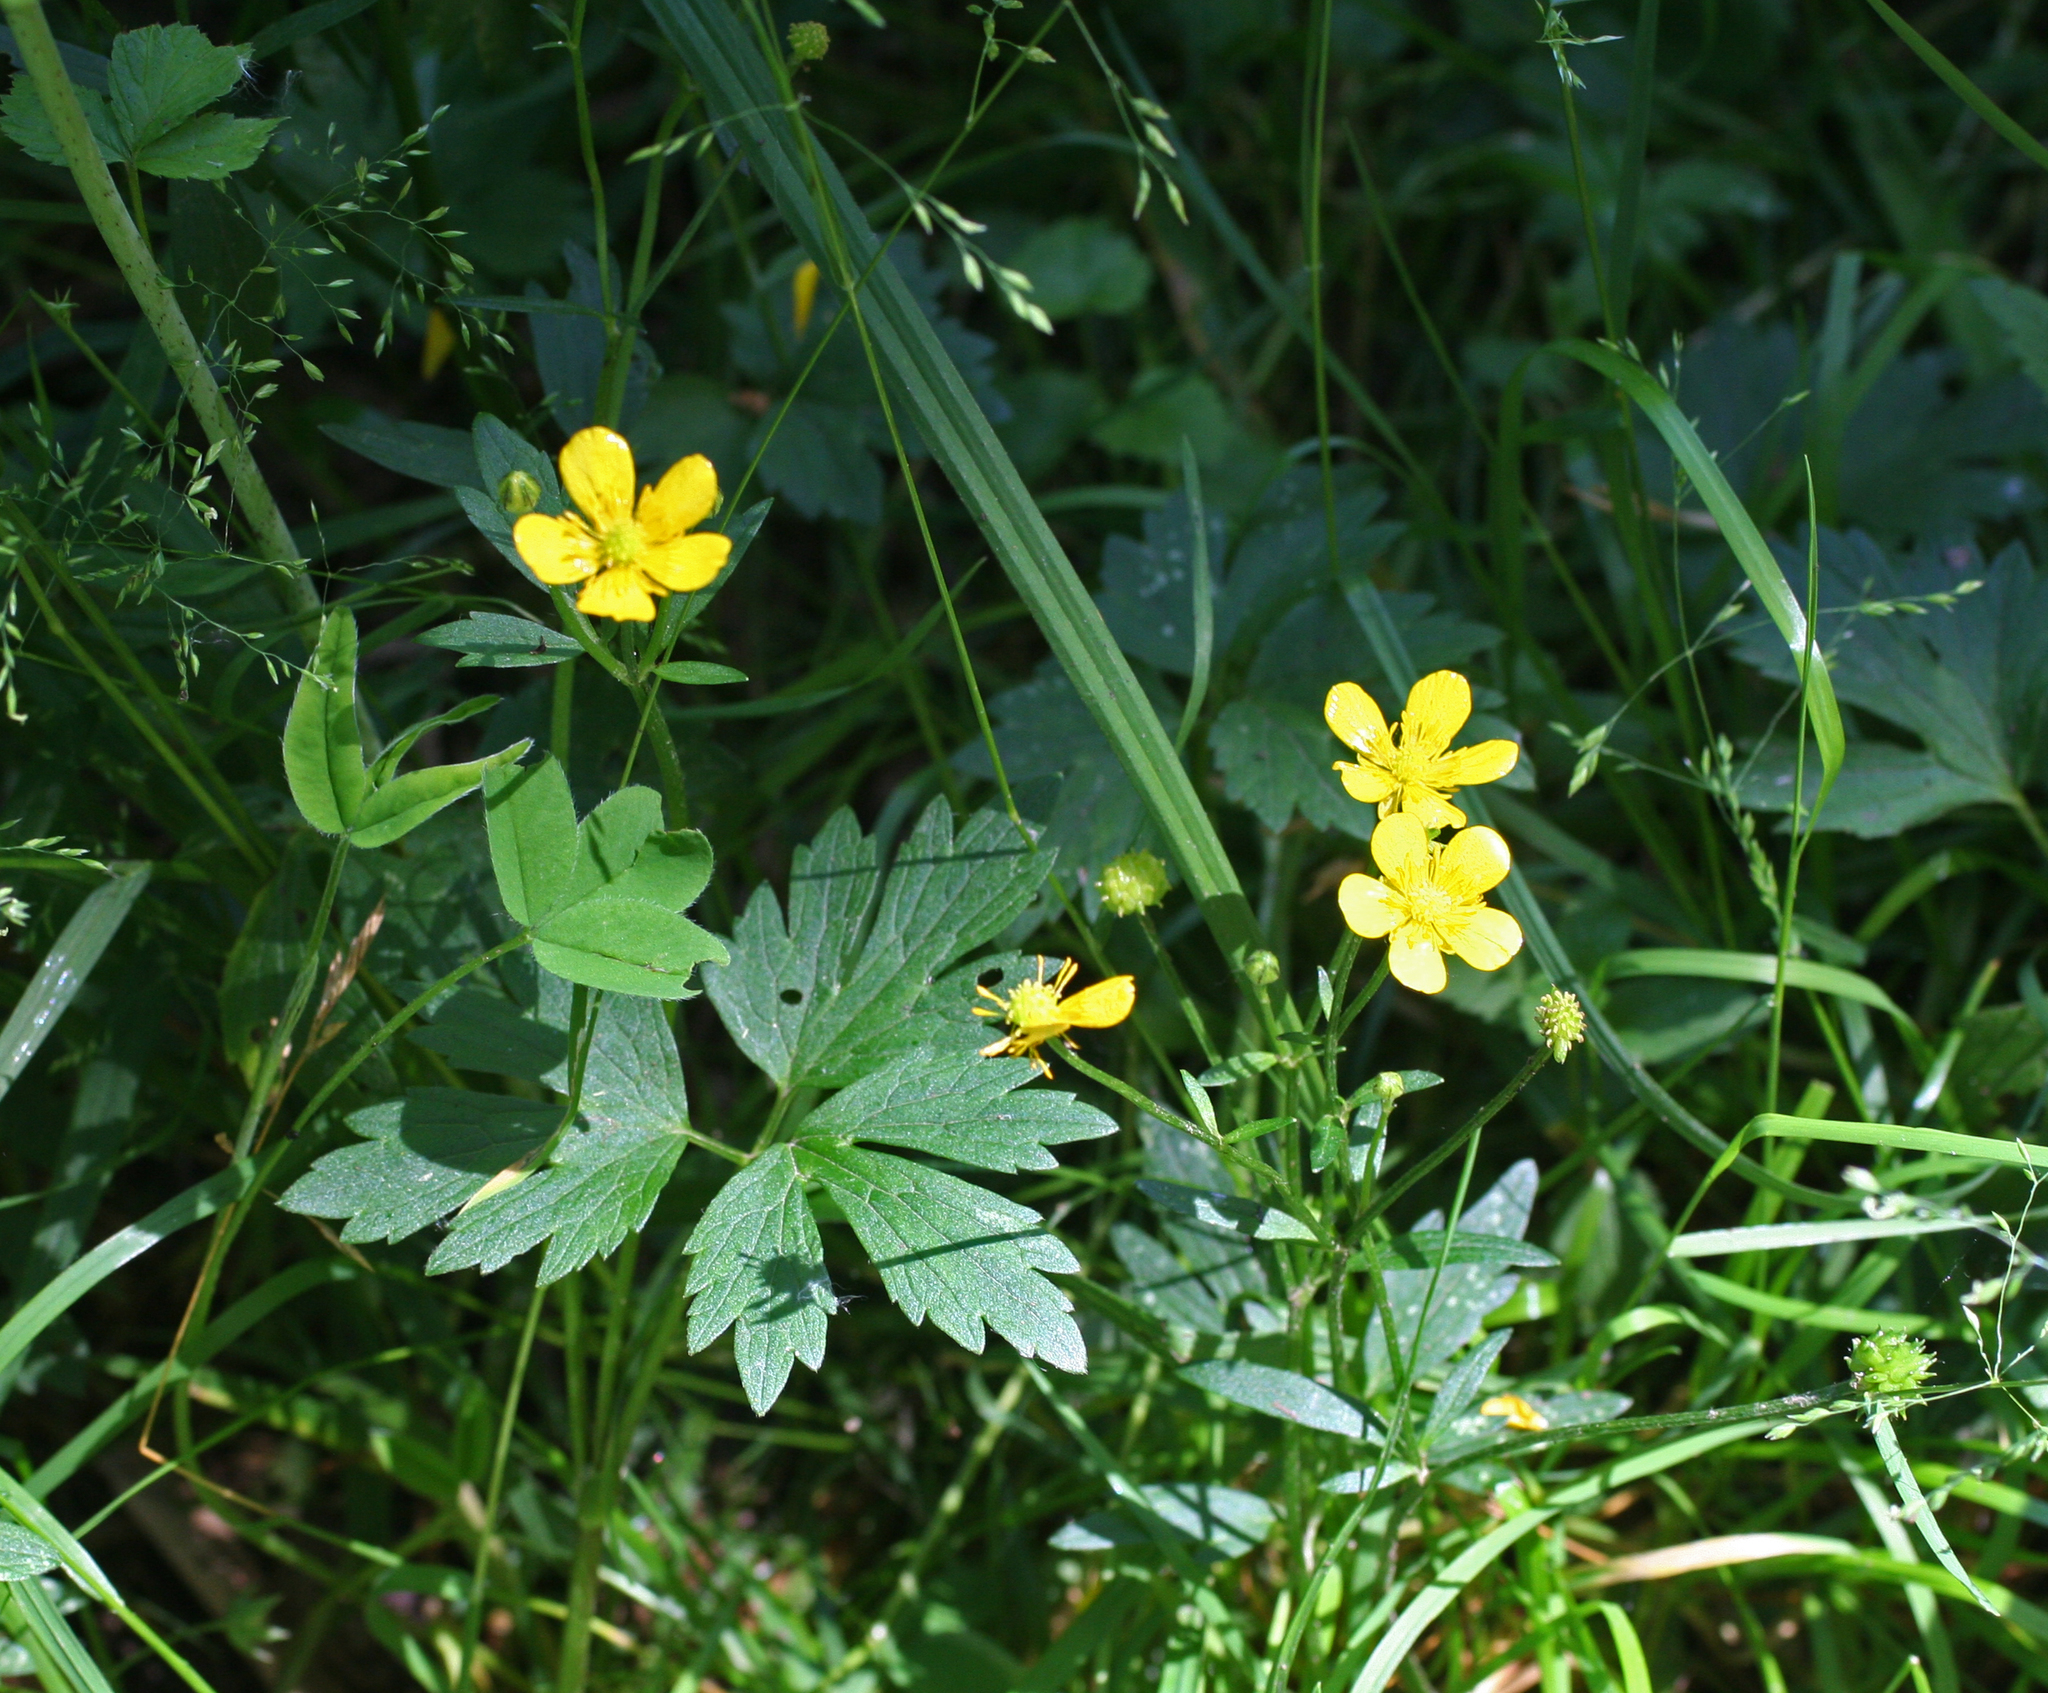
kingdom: Plantae
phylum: Tracheophyta
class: Magnoliopsida
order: Ranunculales
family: Ranunculaceae
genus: Ranunculus
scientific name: Ranunculus repens
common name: Creeping buttercup
